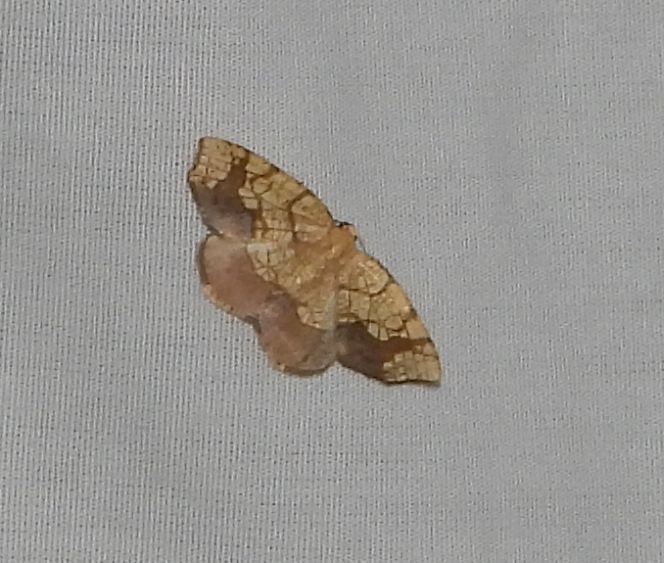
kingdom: Animalia
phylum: Arthropoda
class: Insecta
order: Lepidoptera
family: Geometridae
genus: Nematocampa
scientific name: Nematocampa resistaria
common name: Horned spanworm moth
